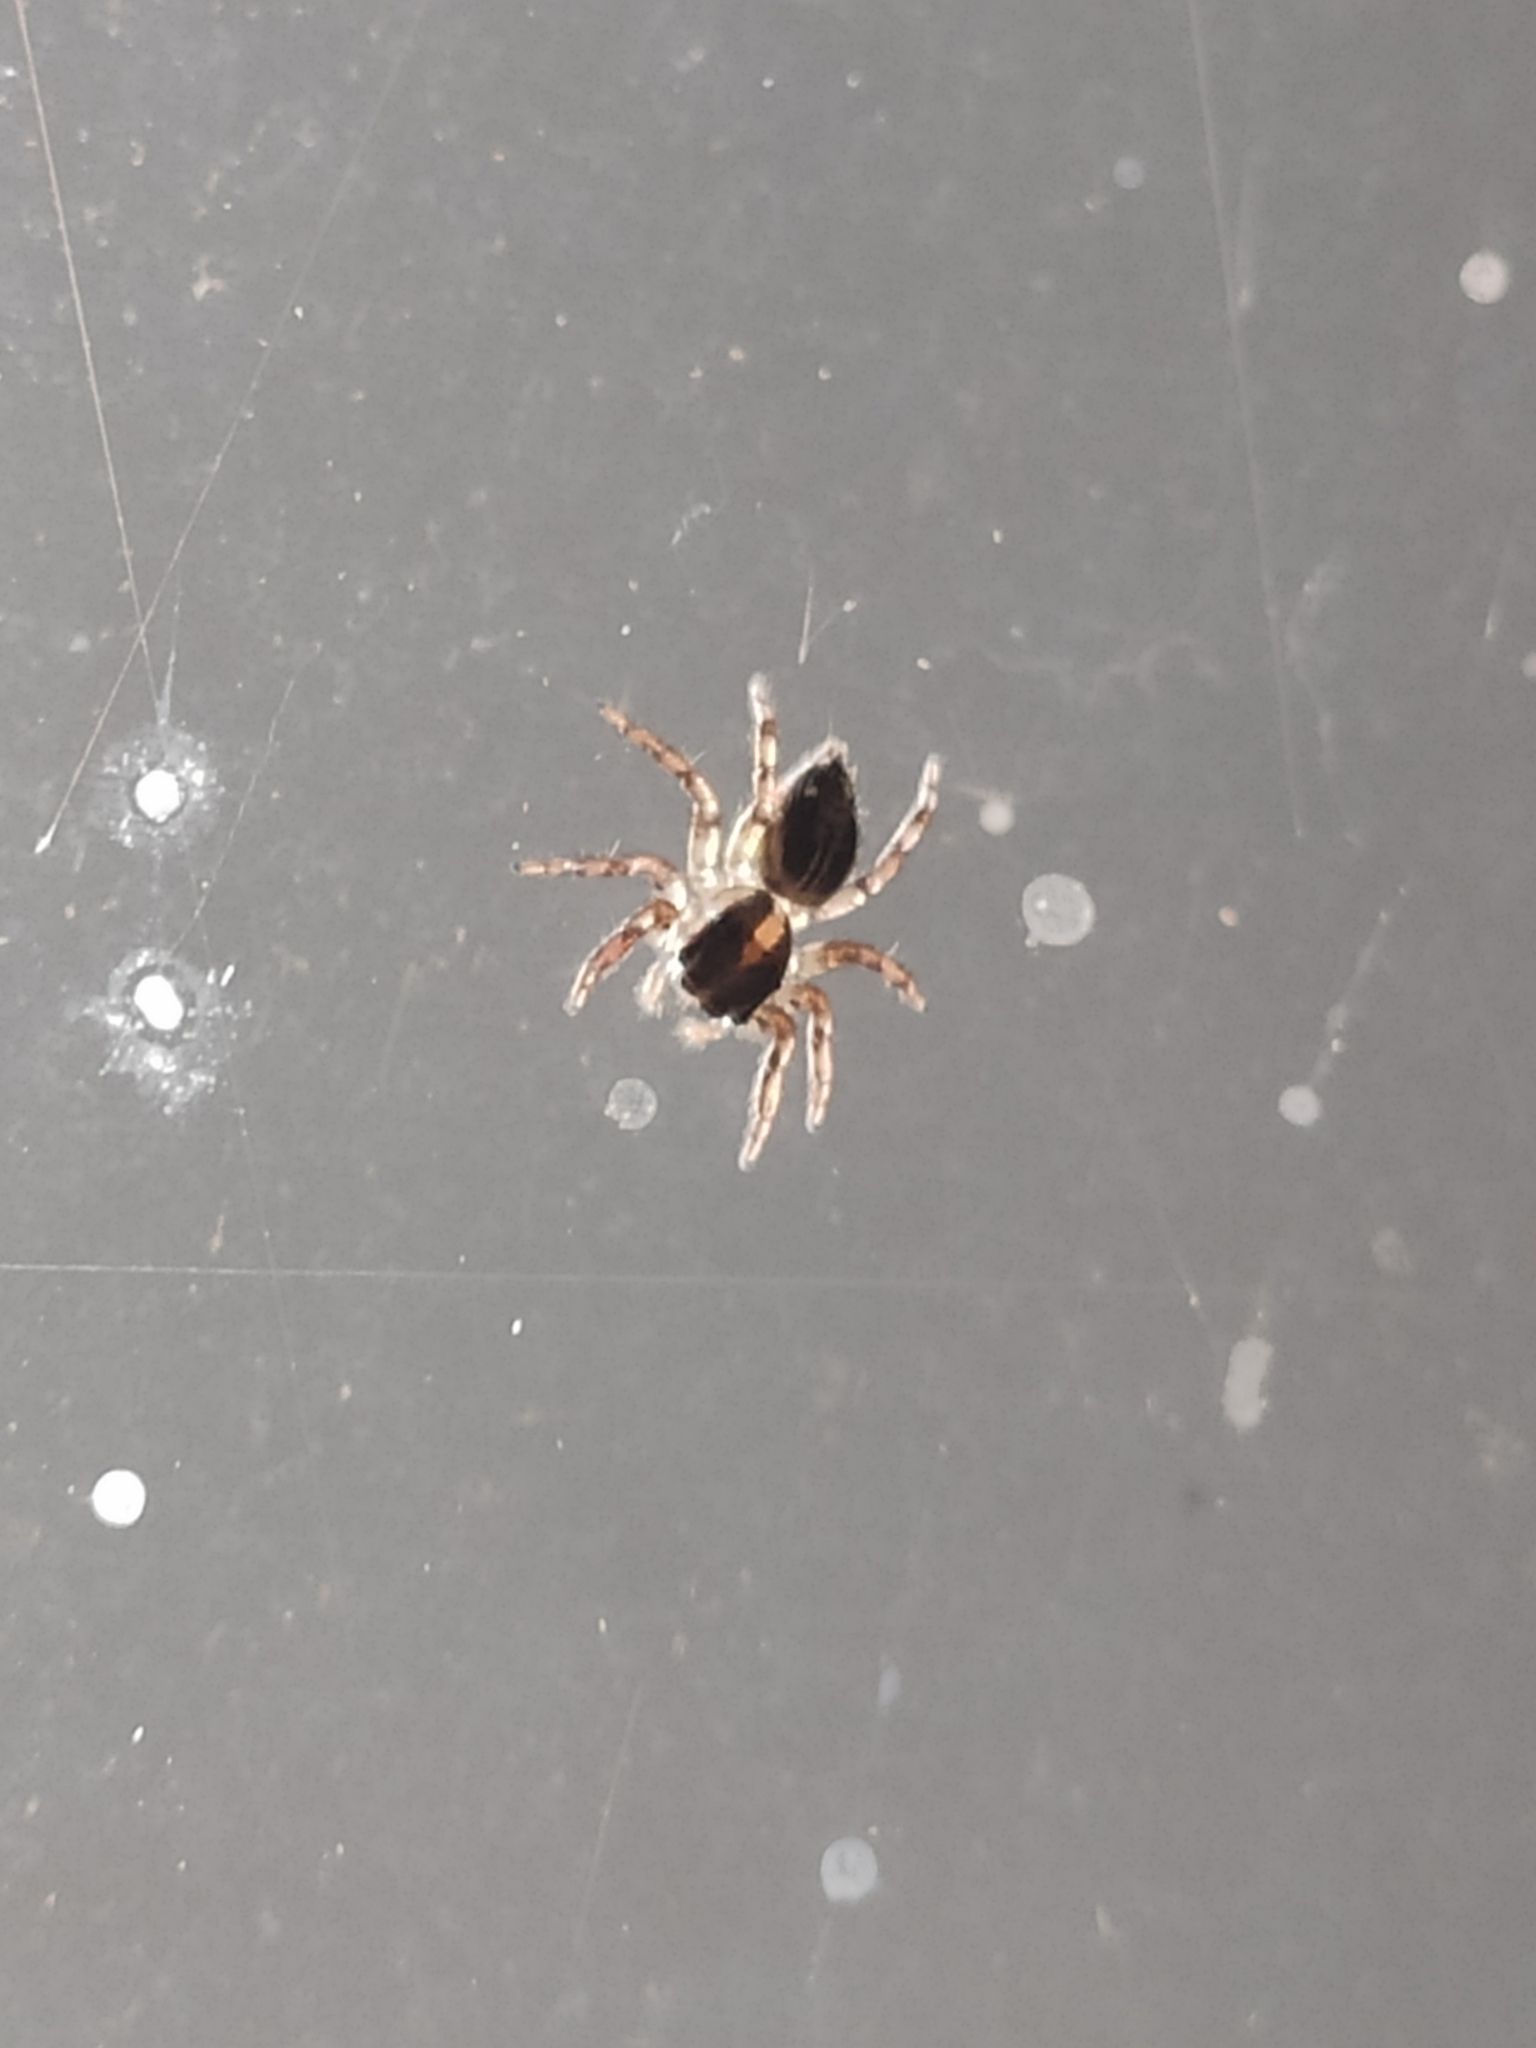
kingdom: Animalia
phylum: Arthropoda
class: Arachnida
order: Araneae
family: Salticidae
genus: Plexippus
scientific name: Plexippus paykulli
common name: Pantropical jumper
